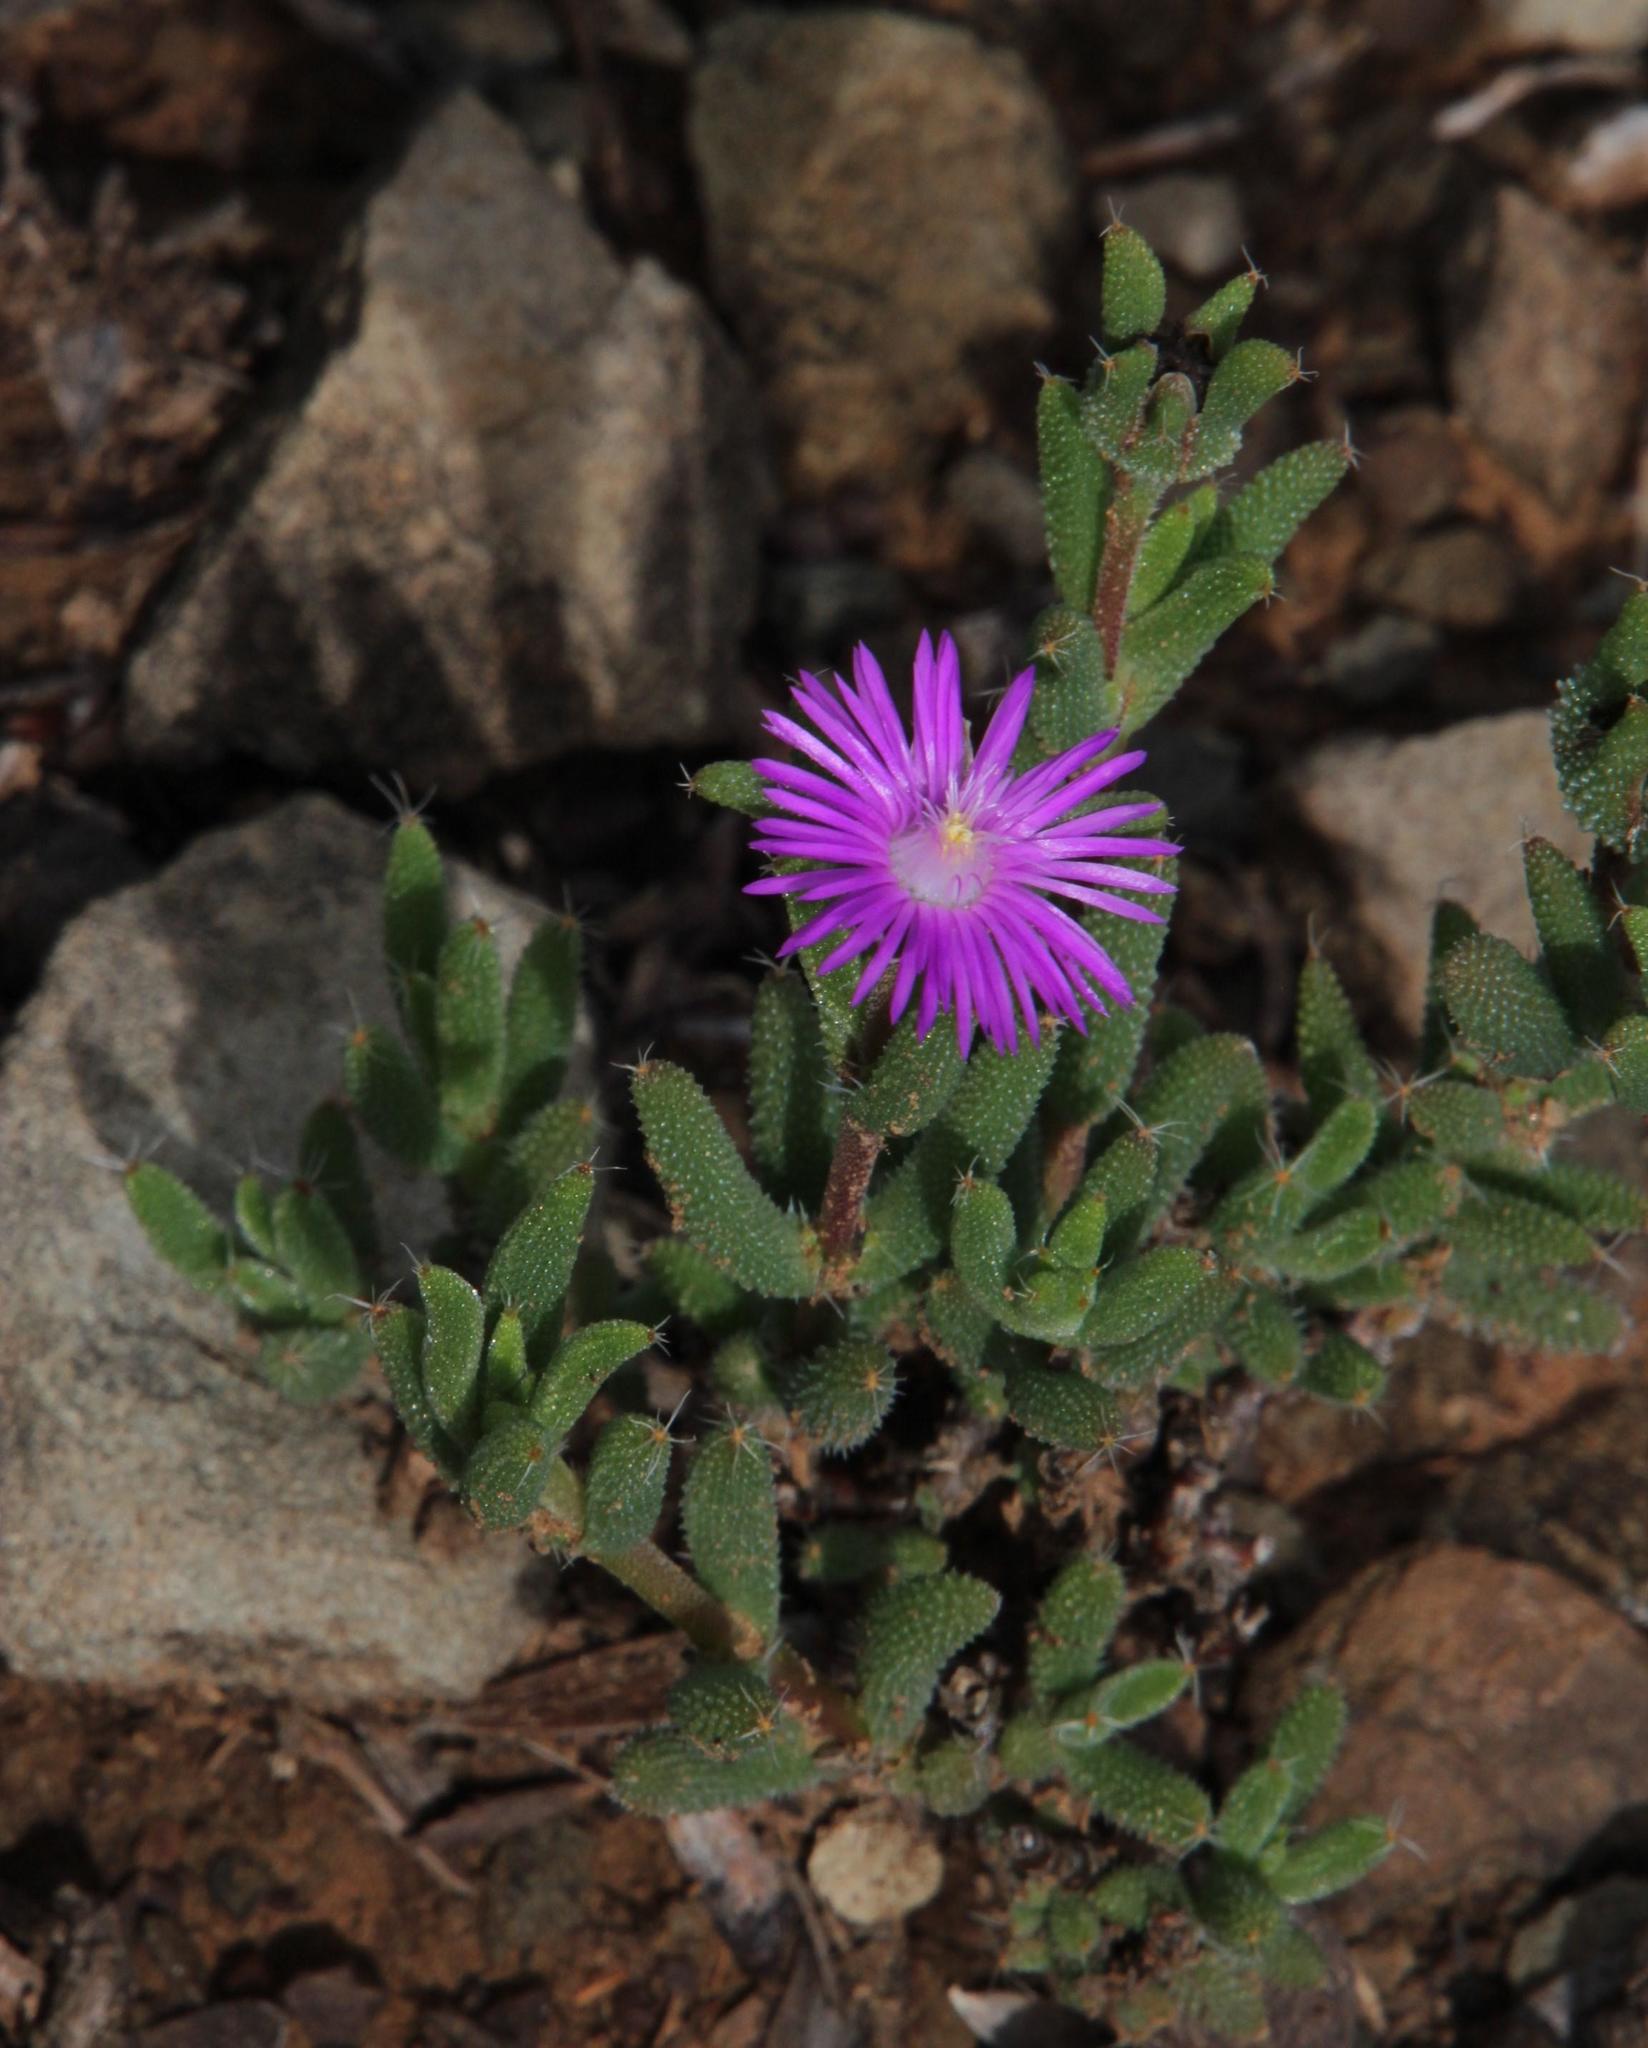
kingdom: Plantae
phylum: Tracheophyta
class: Magnoliopsida
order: Caryophyllales
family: Aizoaceae
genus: Trichodiadema
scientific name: Trichodiadema setuliferum
